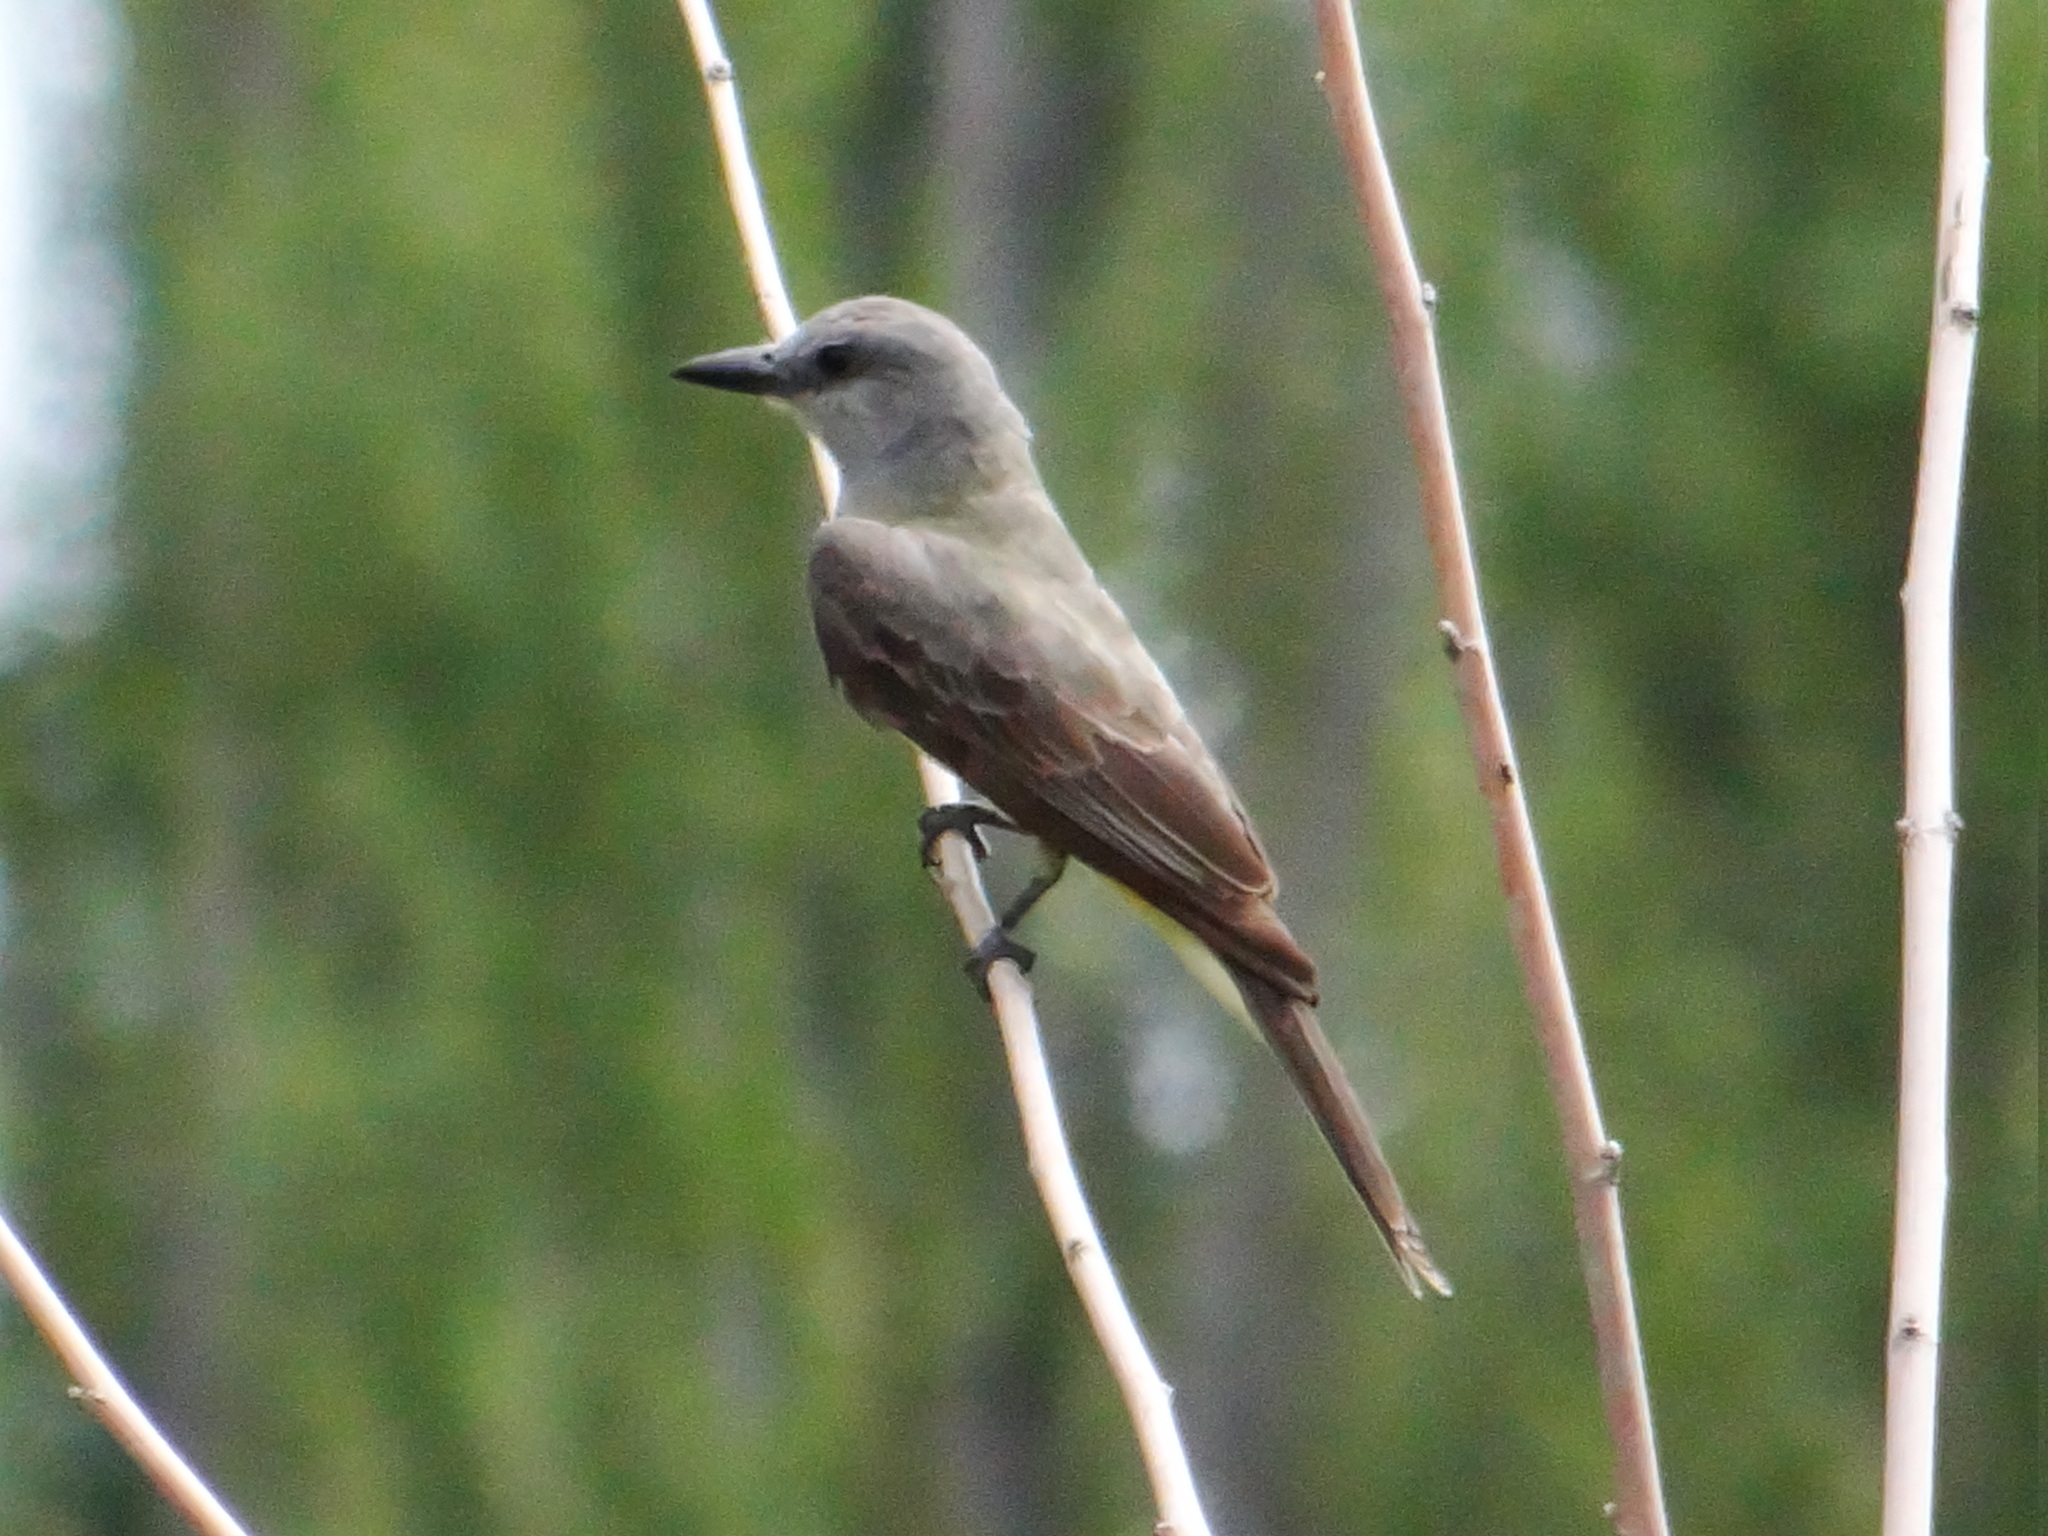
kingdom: Animalia
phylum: Chordata
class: Aves
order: Passeriformes
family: Tyrannidae
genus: Tyrannus
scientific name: Tyrannus melancholicus
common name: Tropical kingbird
